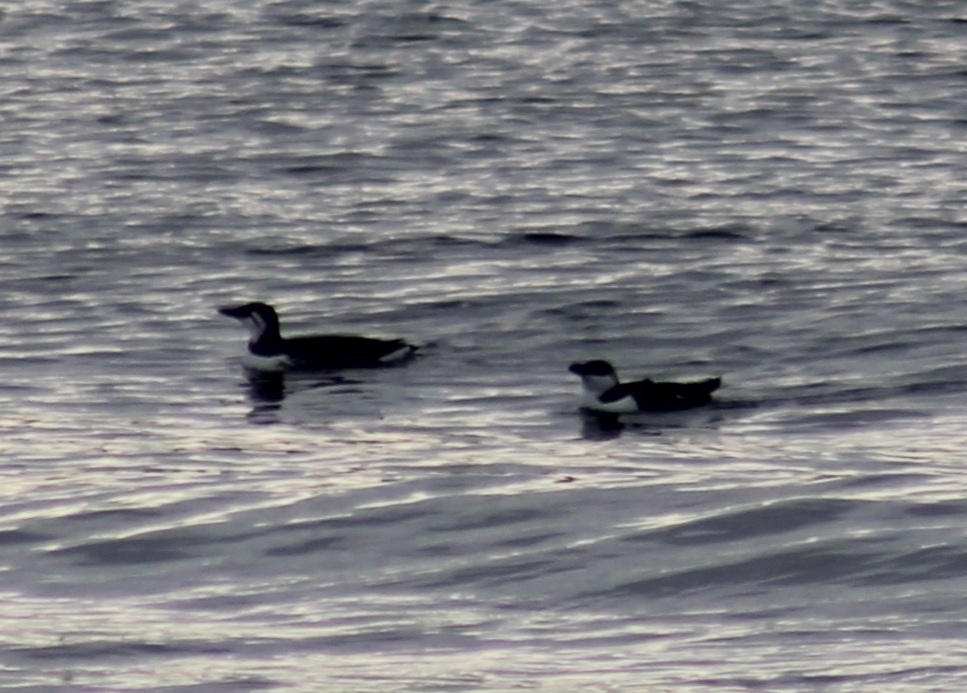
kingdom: Animalia
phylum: Chordata
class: Aves
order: Charadriiformes
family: Alcidae
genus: Alca
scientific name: Alca torda
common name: Razorbill
